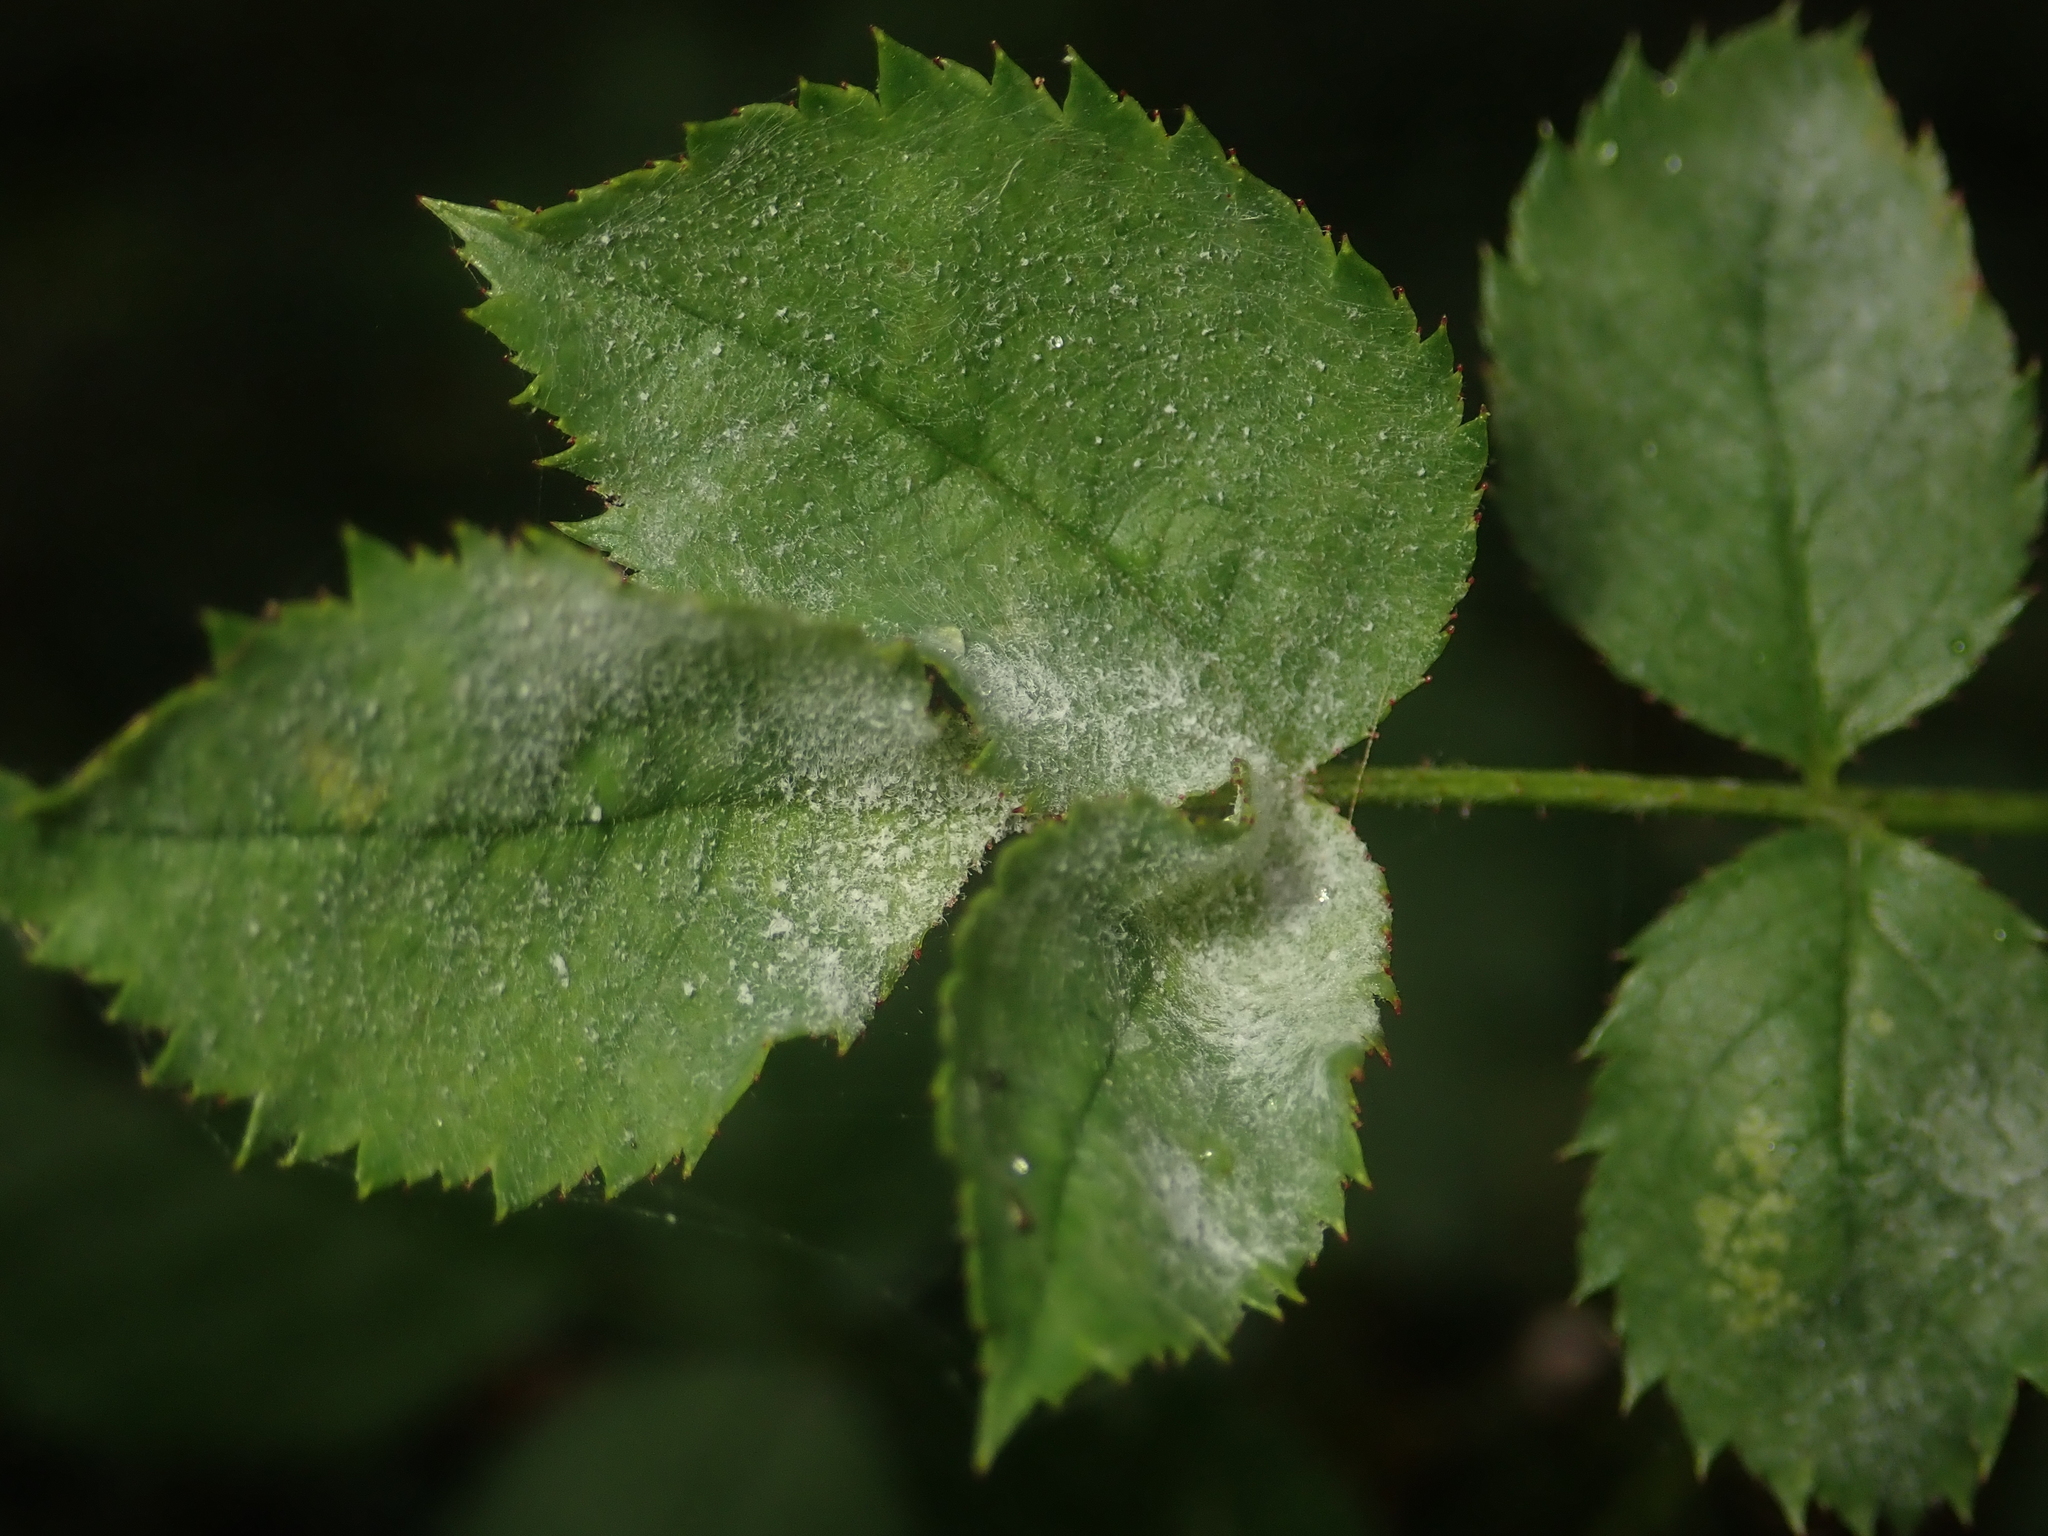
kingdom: Fungi
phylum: Ascomycota
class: Leotiomycetes
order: Helotiales
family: Erysiphaceae
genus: Podosphaera
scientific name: Podosphaera pannosa
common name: Rose mildew
